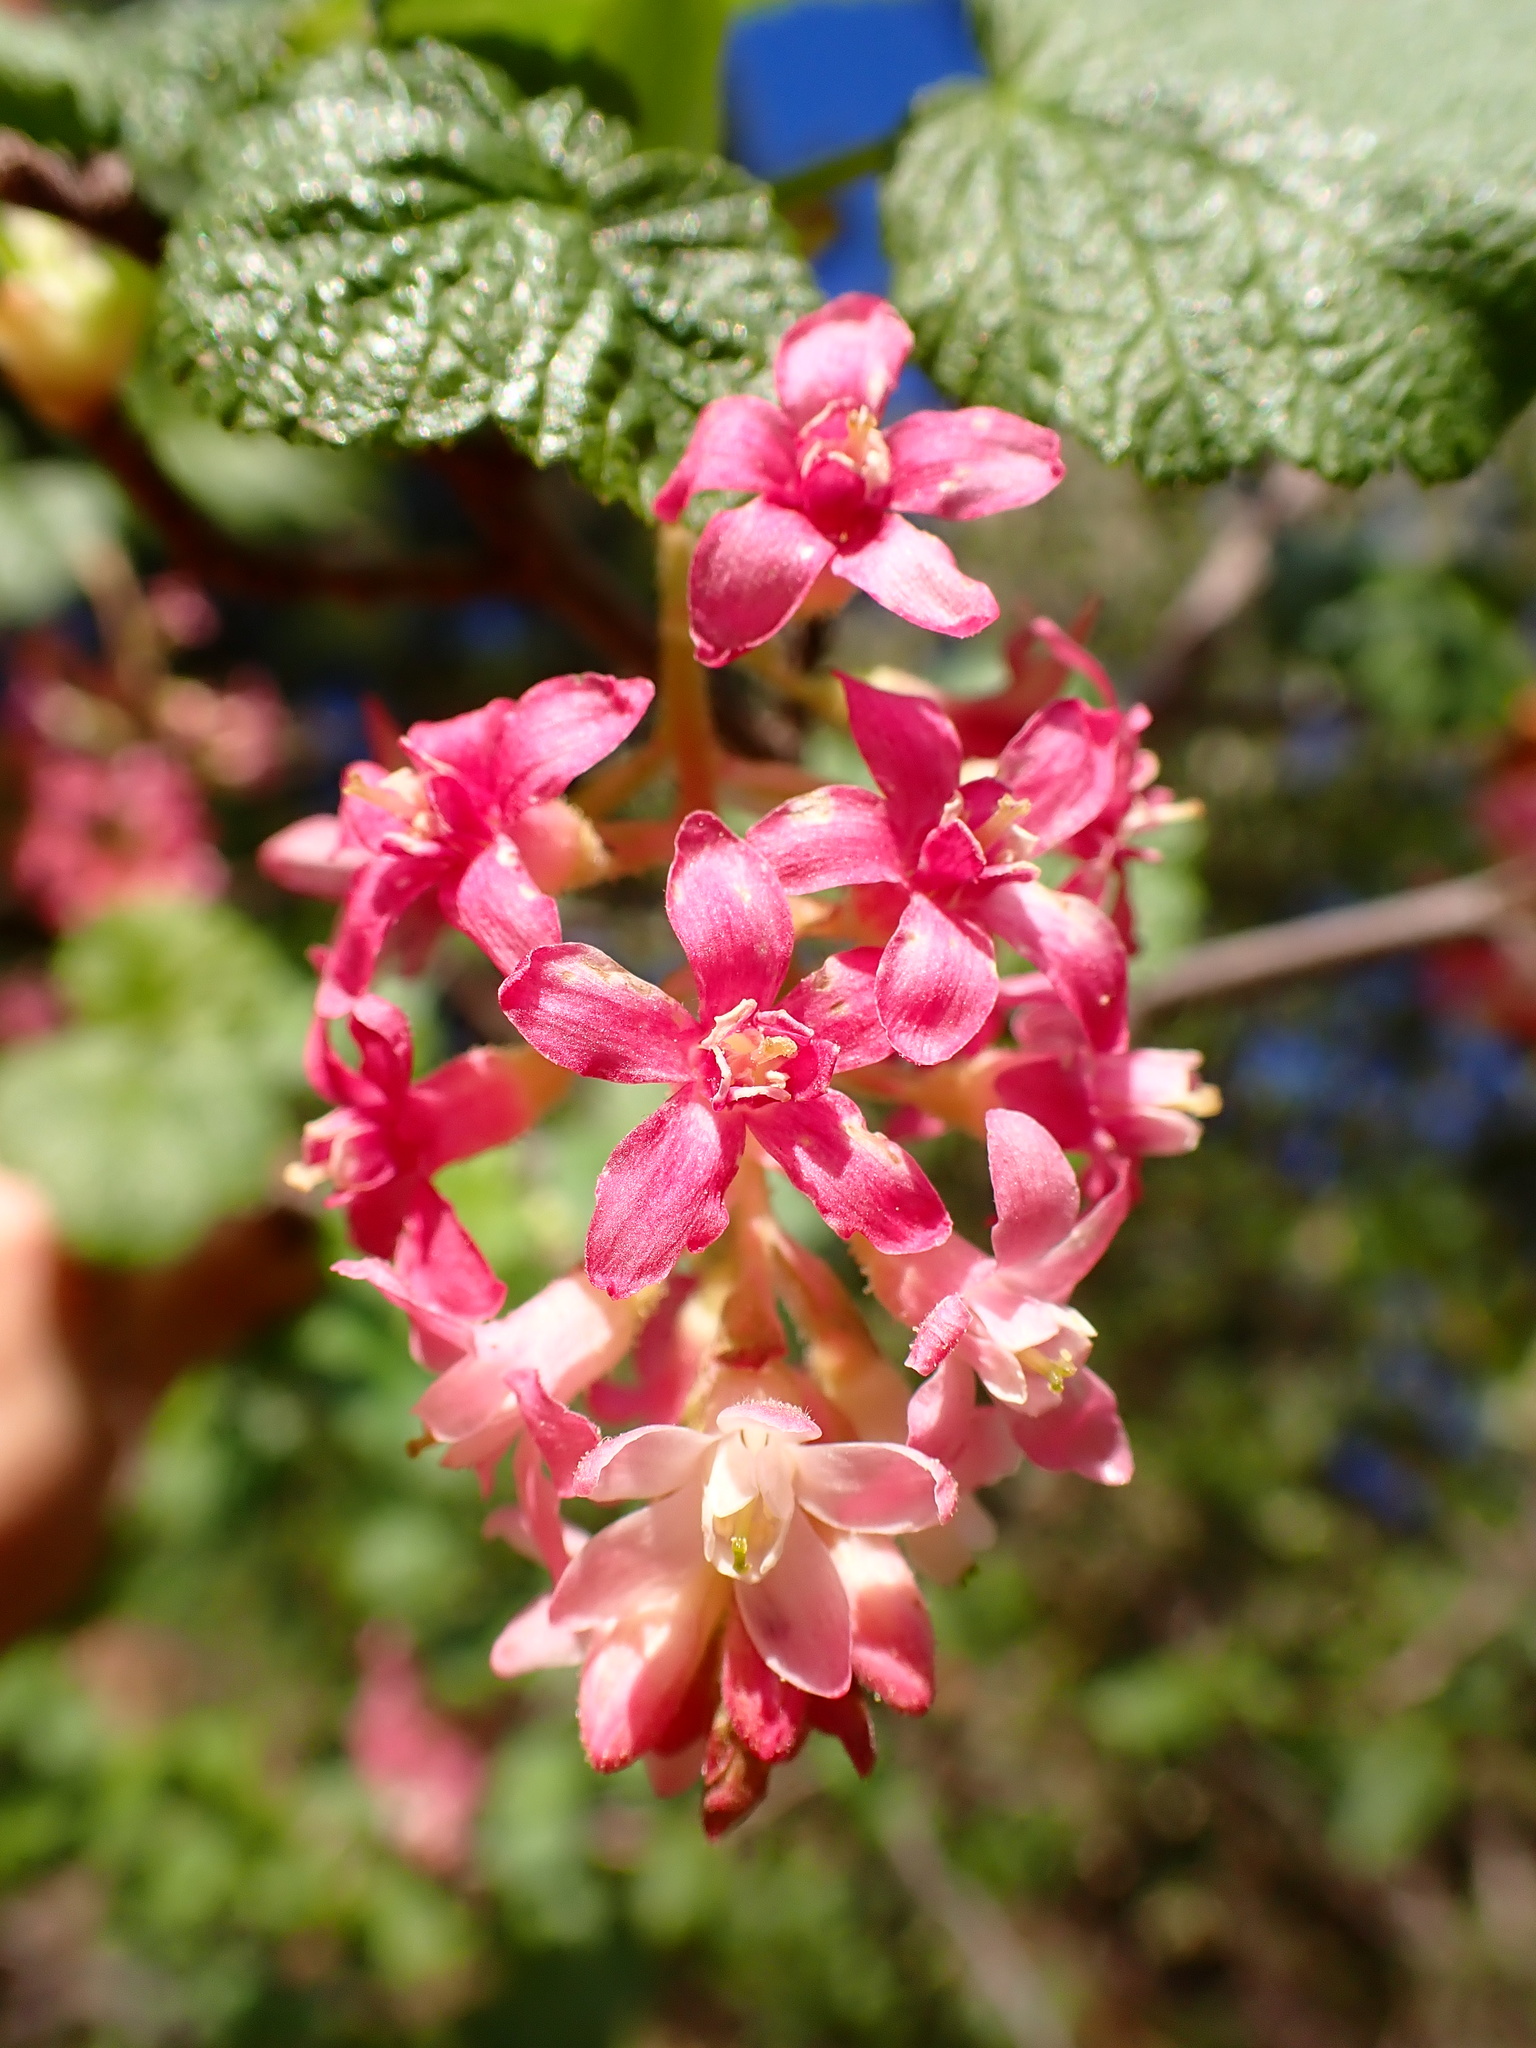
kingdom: Plantae
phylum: Tracheophyta
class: Magnoliopsida
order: Saxifragales
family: Grossulariaceae
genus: Ribes
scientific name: Ribes sanguineum
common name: Flowering currant
